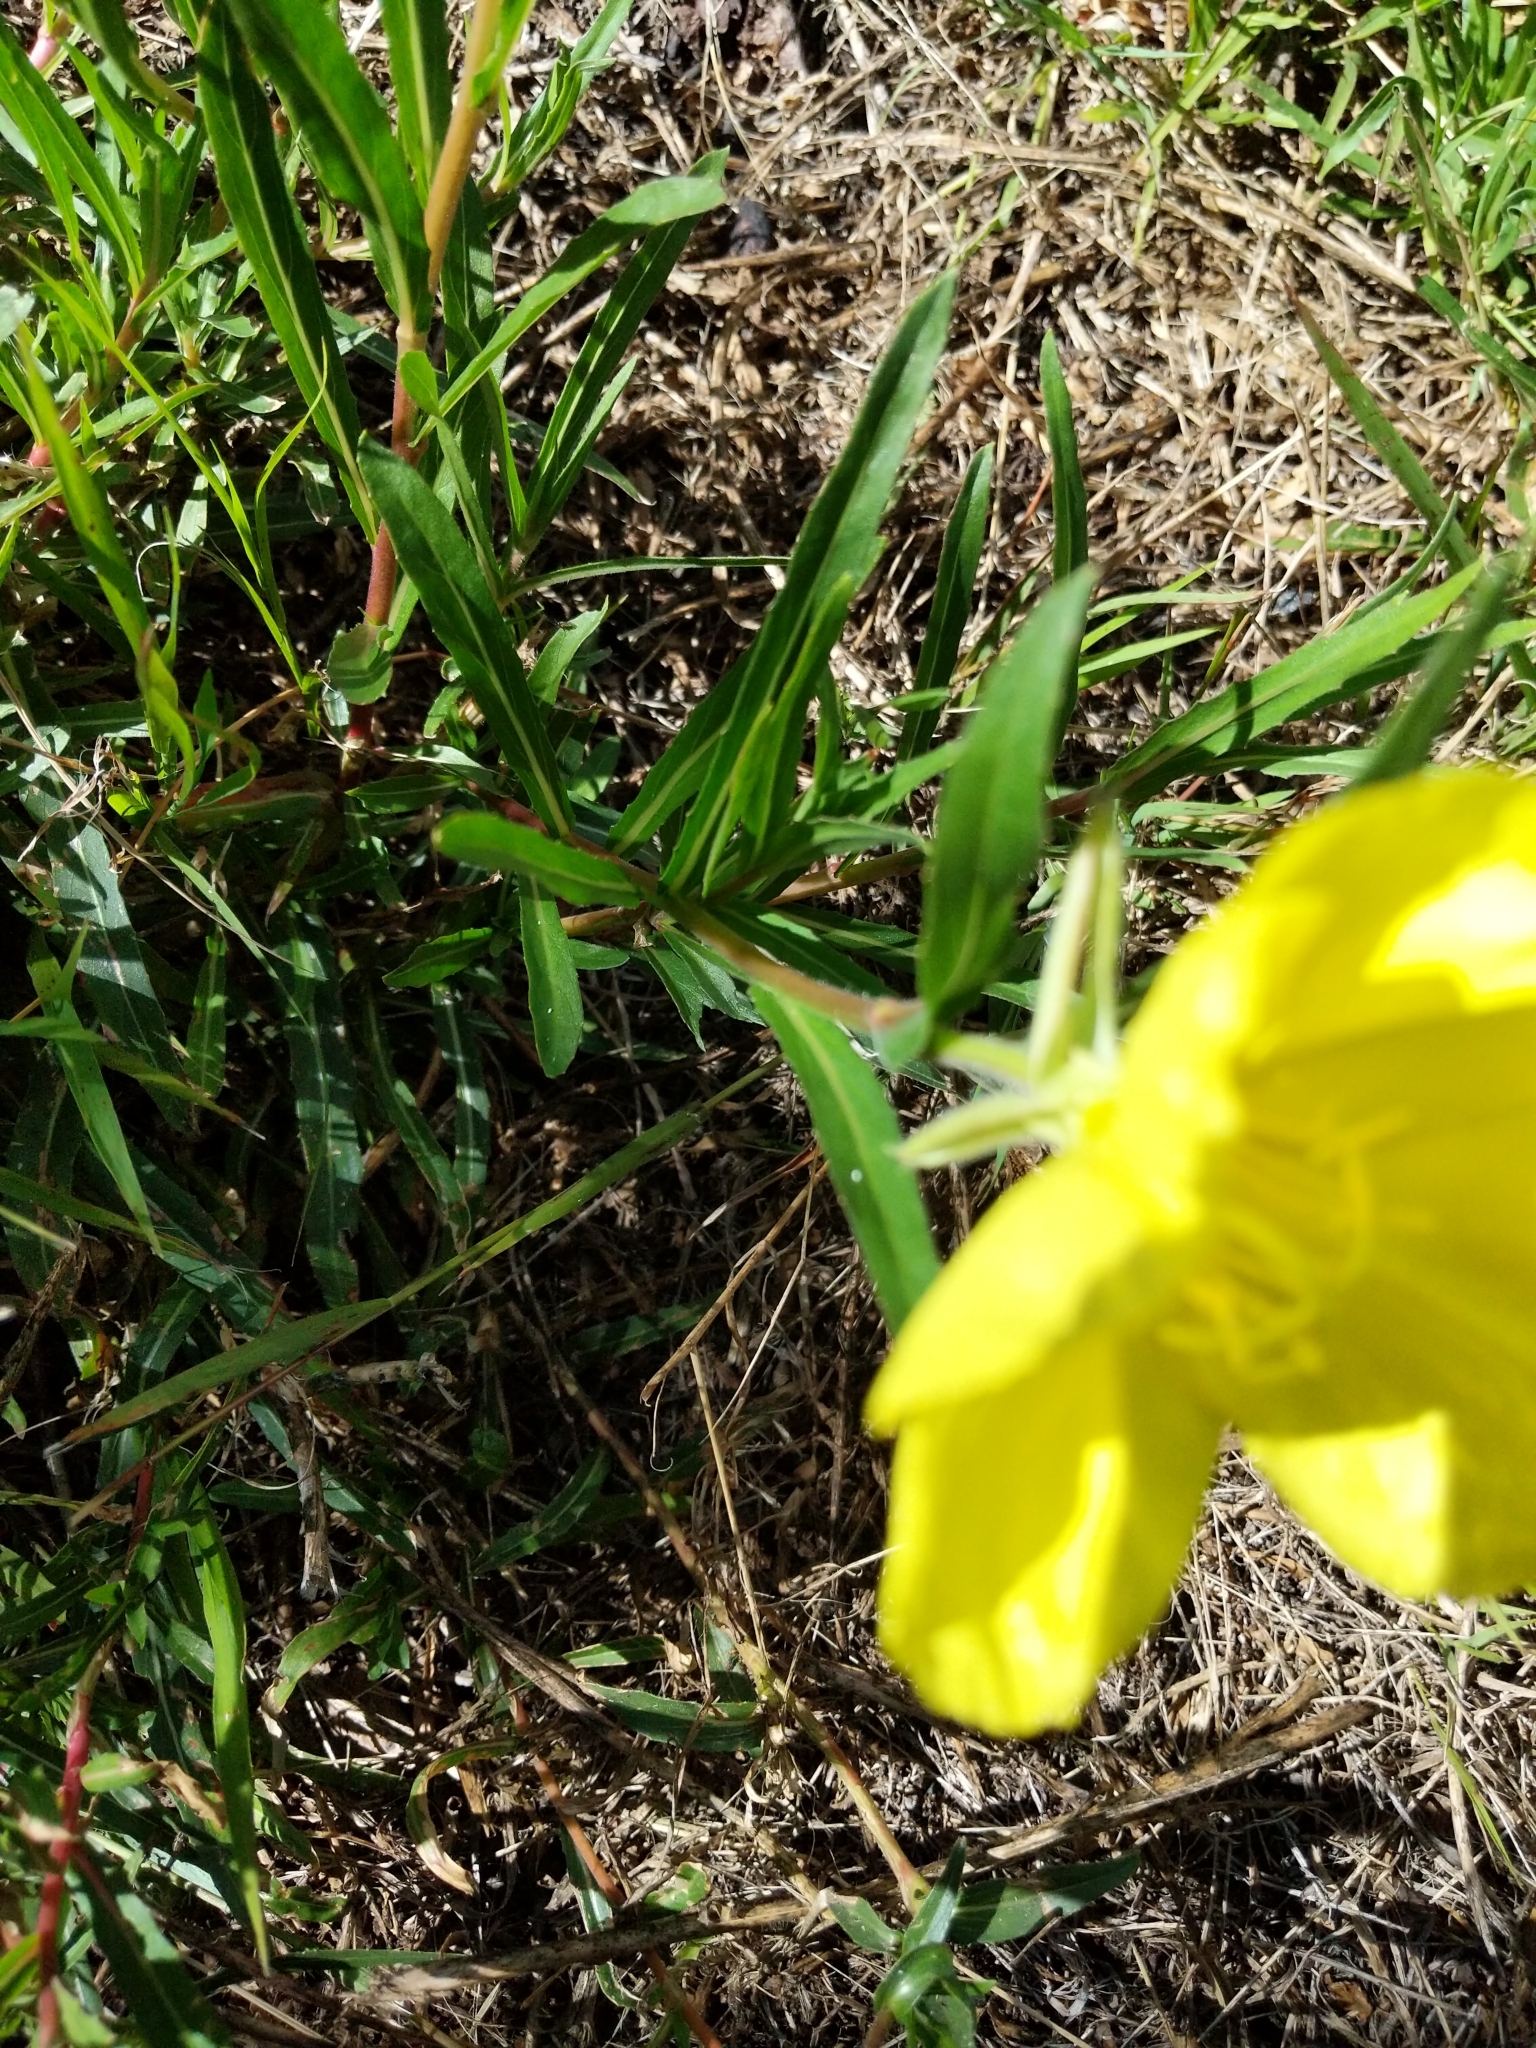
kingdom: Plantae
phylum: Tracheophyta
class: Magnoliopsida
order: Myrtales
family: Onagraceae
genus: Oenothera
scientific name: Oenothera stricta
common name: Fragrant evening-primrose
